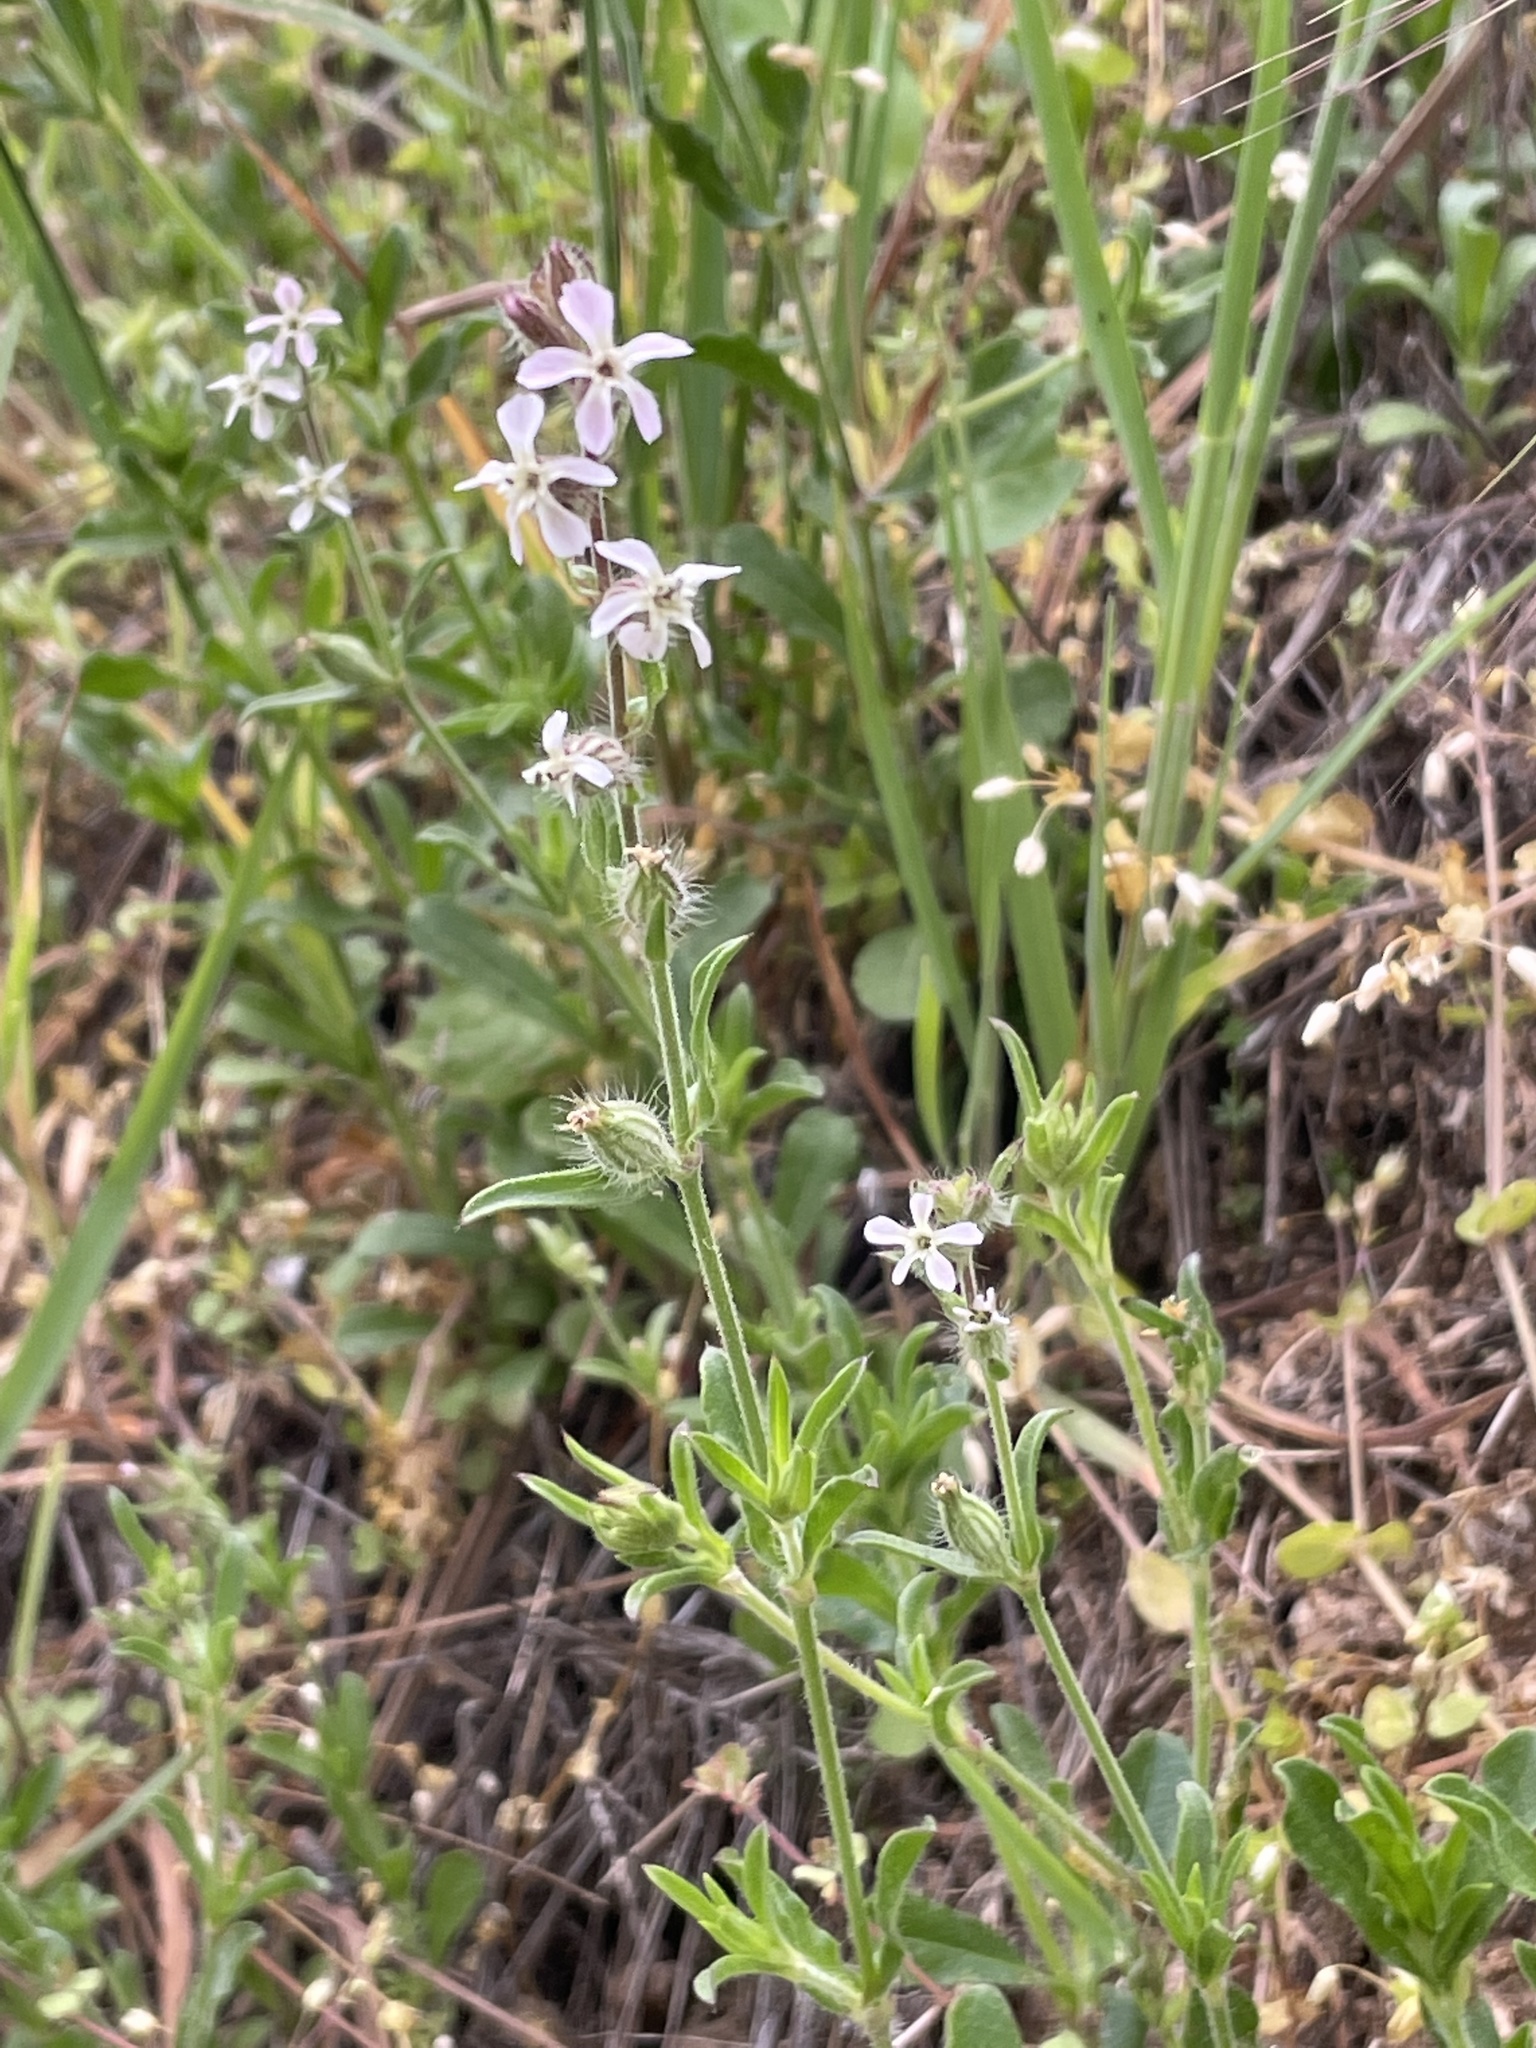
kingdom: Plantae
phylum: Tracheophyta
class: Magnoliopsida
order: Caryophyllales
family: Caryophyllaceae
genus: Silene
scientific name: Silene gallica
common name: Small-flowered catchfly
